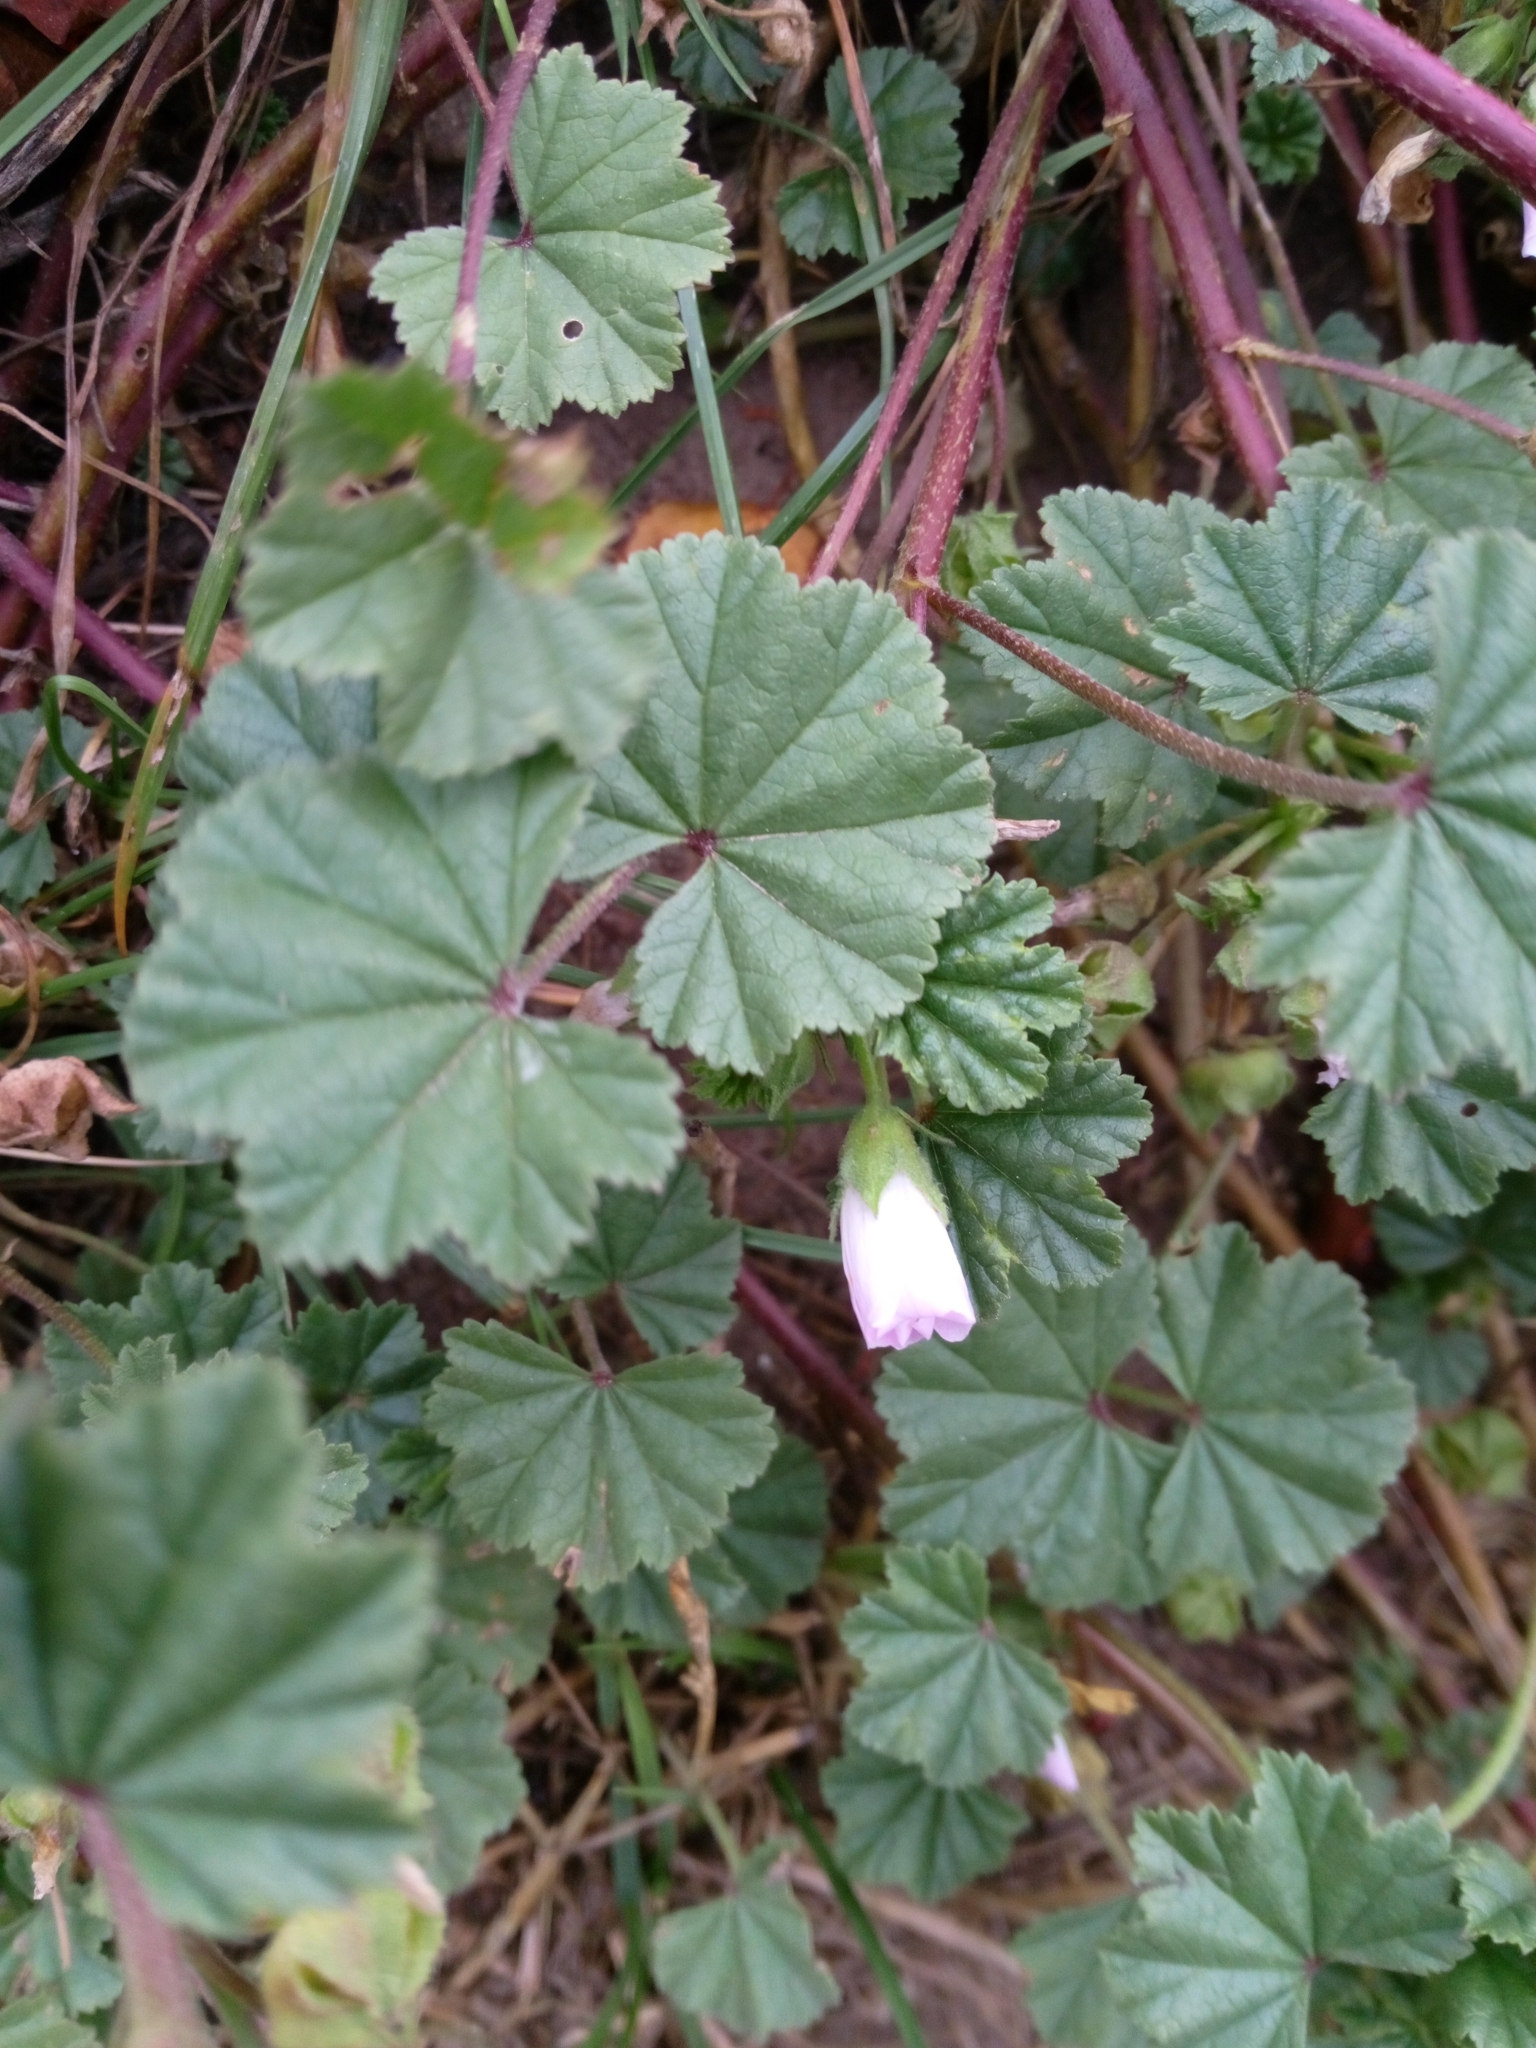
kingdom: Plantae
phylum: Tracheophyta
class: Magnoliopsida
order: Malvales
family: Malvaceae
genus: Malva
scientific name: Malva neglecta
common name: Common mallow
